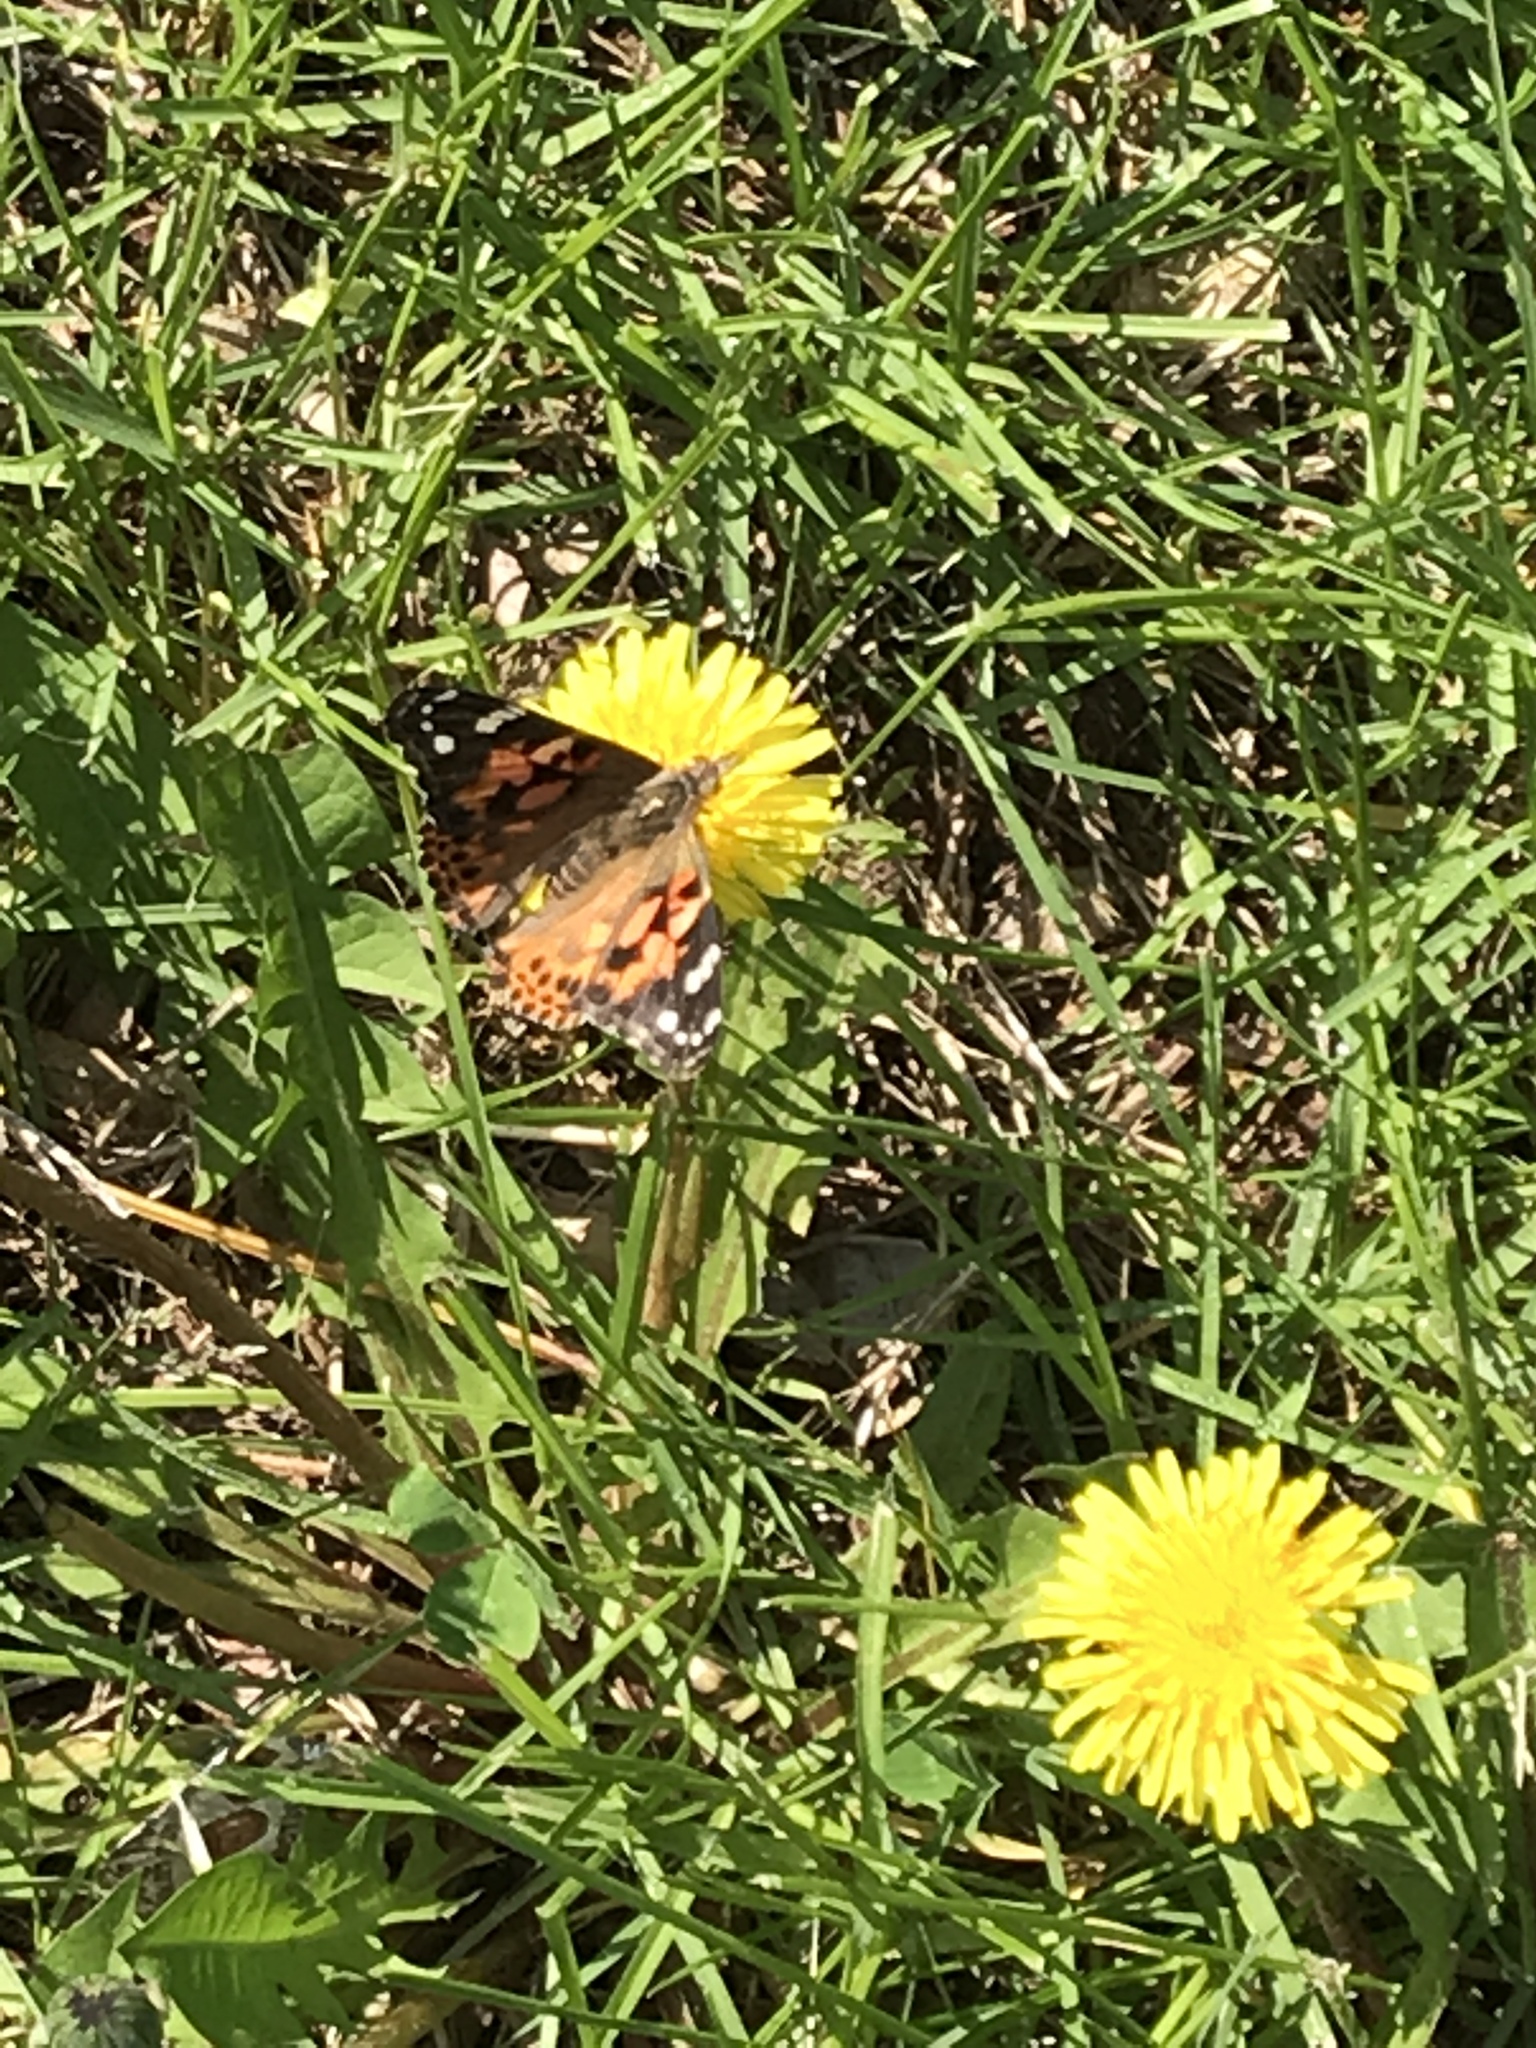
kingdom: Animalia
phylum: Arthropoda
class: Insecta
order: Lepidoptera
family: Nymphalidae
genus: Vanessa
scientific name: Vanessa cardui
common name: Painted lady
